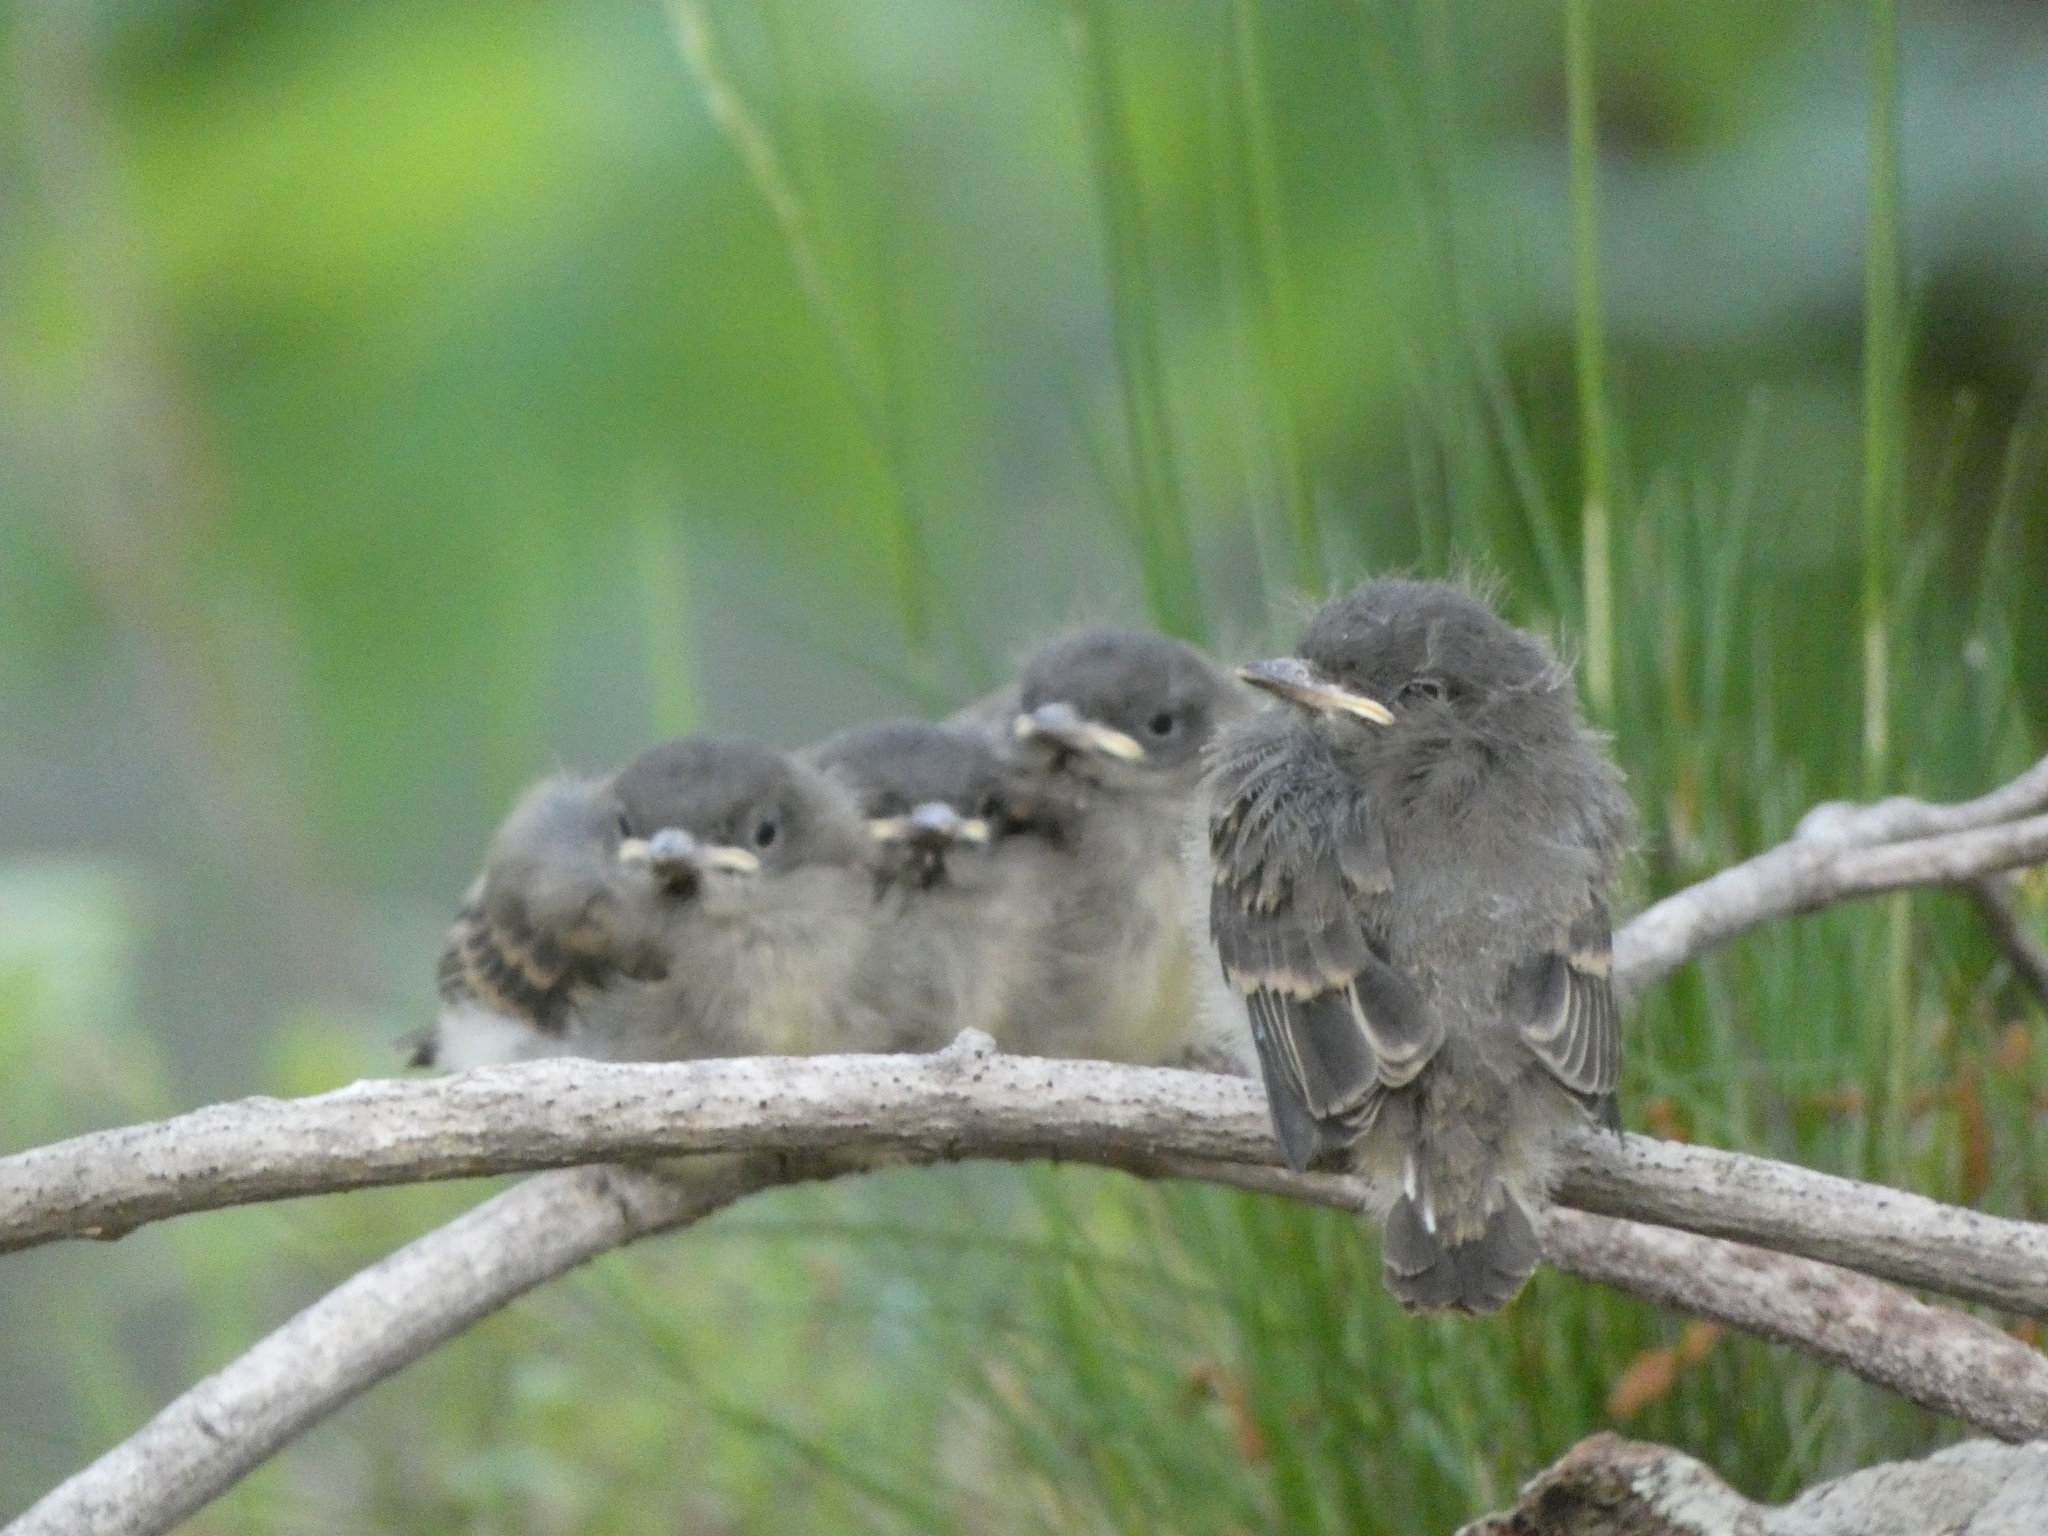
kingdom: Animalia
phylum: Chordata
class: Aves
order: Passeriformes
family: Tyrannidae
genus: Sayornis
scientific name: Sayornis phoebe
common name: Eastern phoebe
